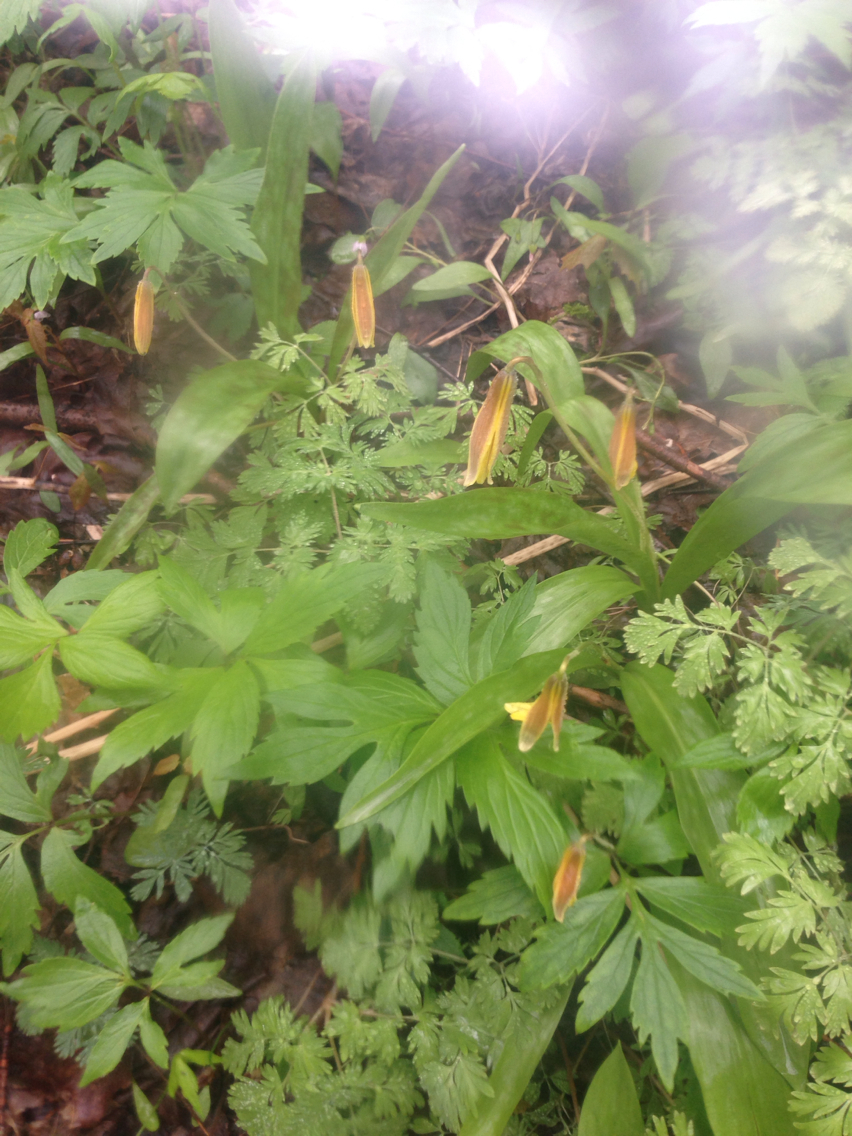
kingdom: Plantae
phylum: Tracheophyta
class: Liliopsida
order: Liliales
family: Liliaceae
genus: Erythronium
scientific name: Erythronium americanum
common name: Yellow adder's-tongue
